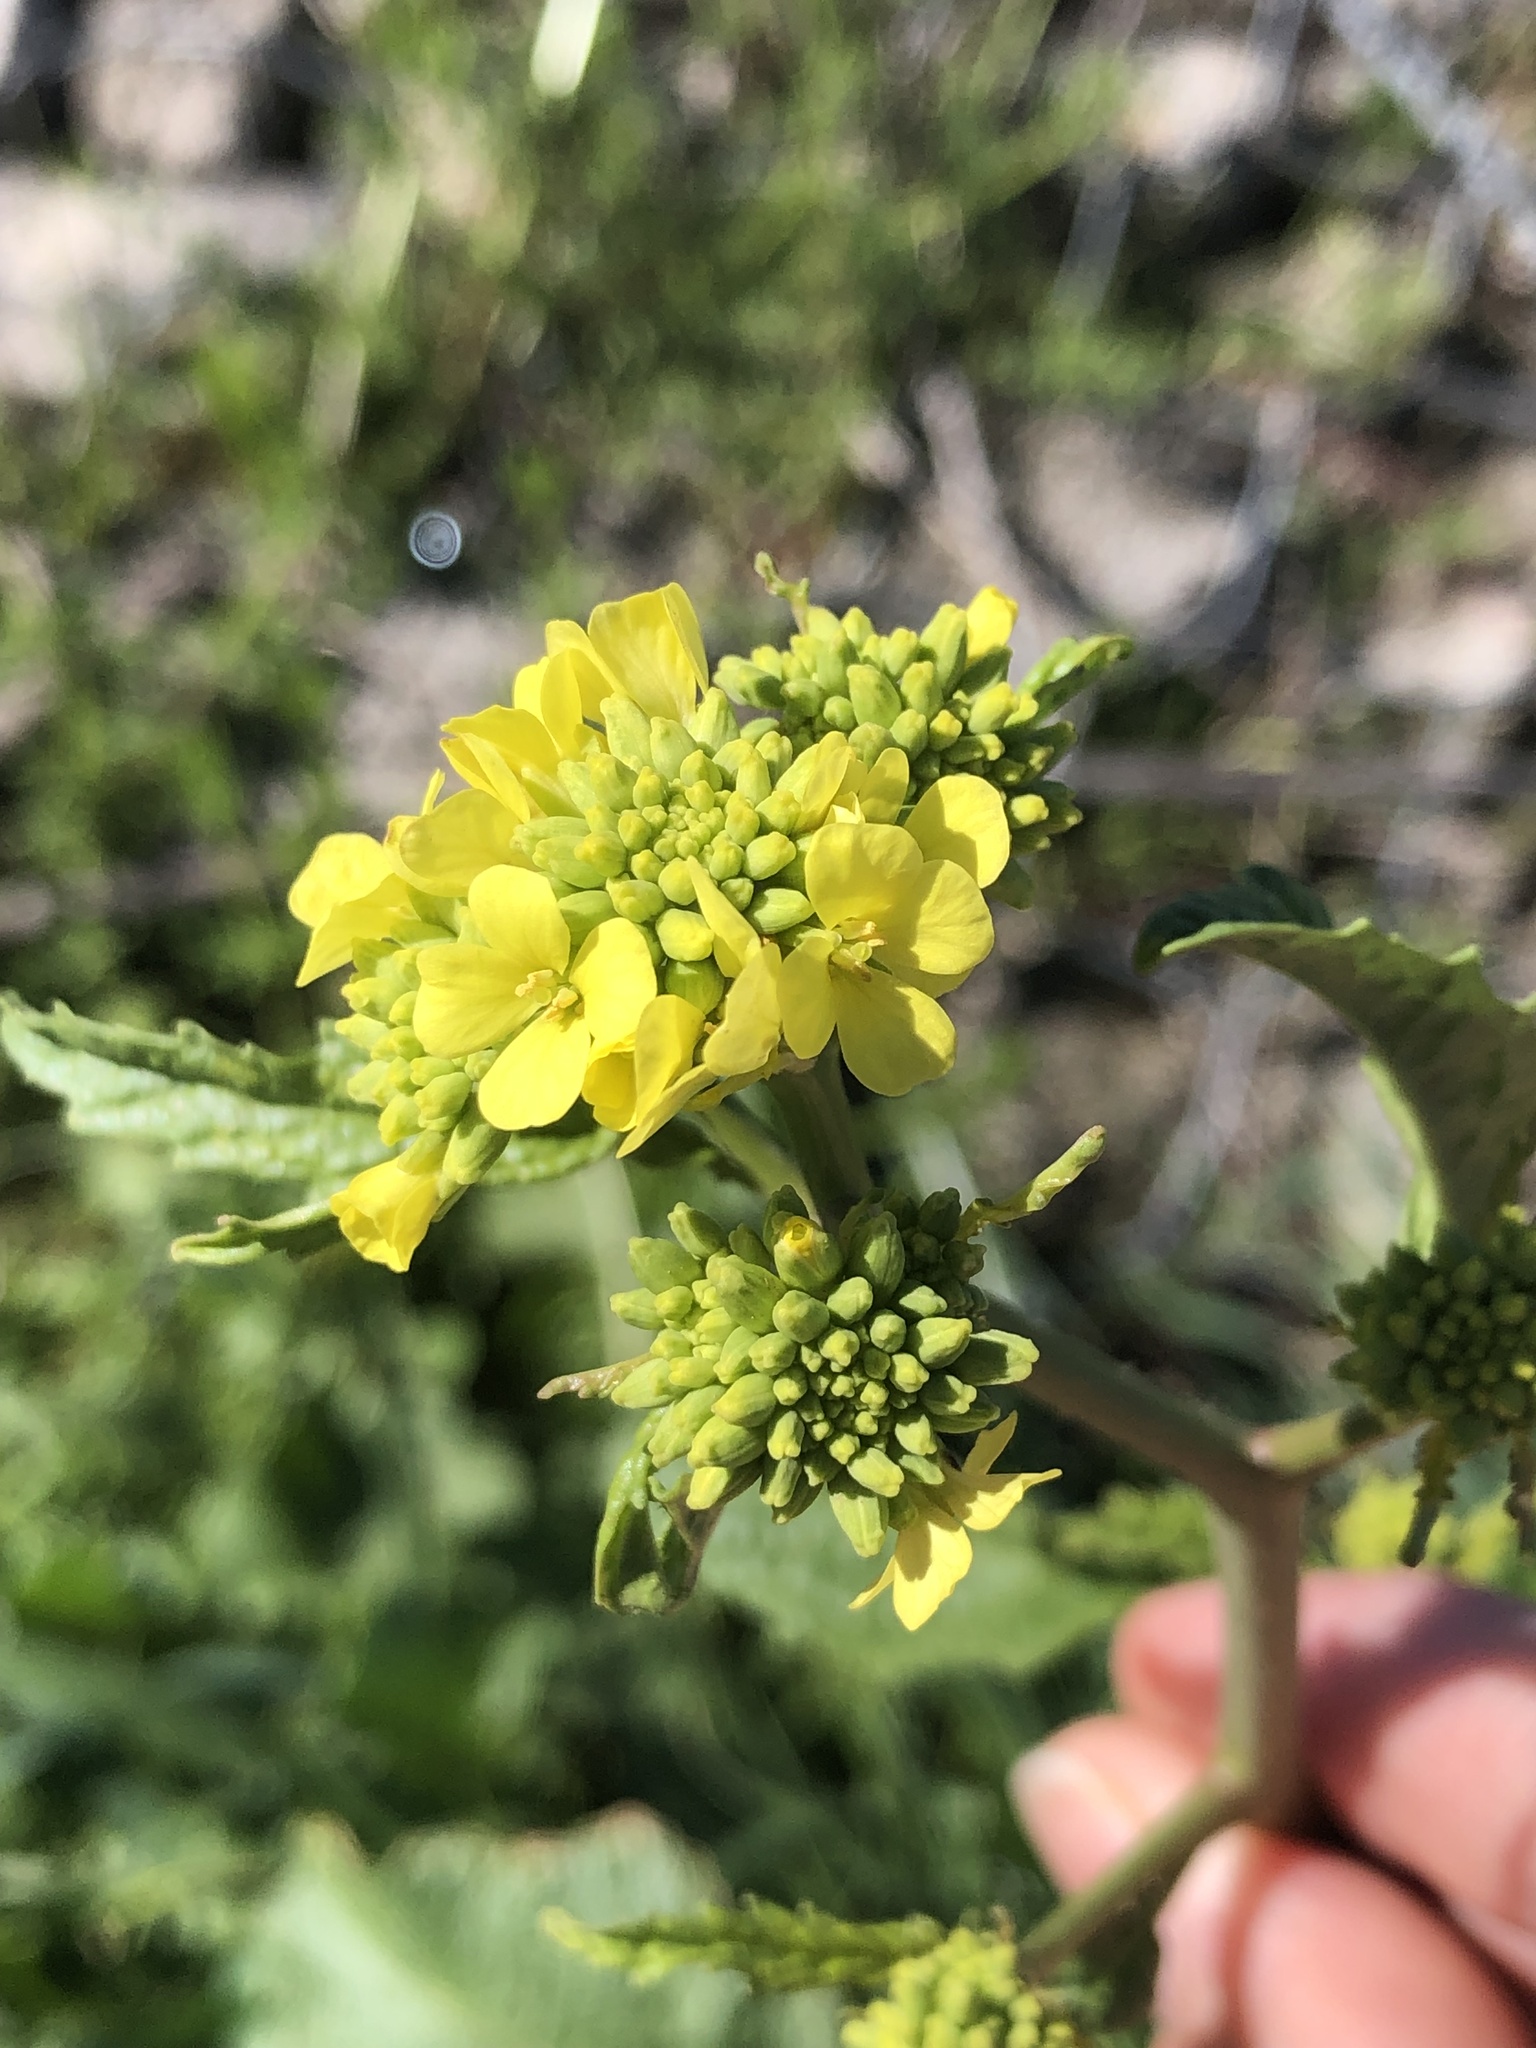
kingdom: Plantae
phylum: Tracheophyta
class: Magnoliopsida
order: Brassicales
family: Brassicaceae
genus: Rapistrum
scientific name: Rapistrum rugosum
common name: Annual bastardcabbage
